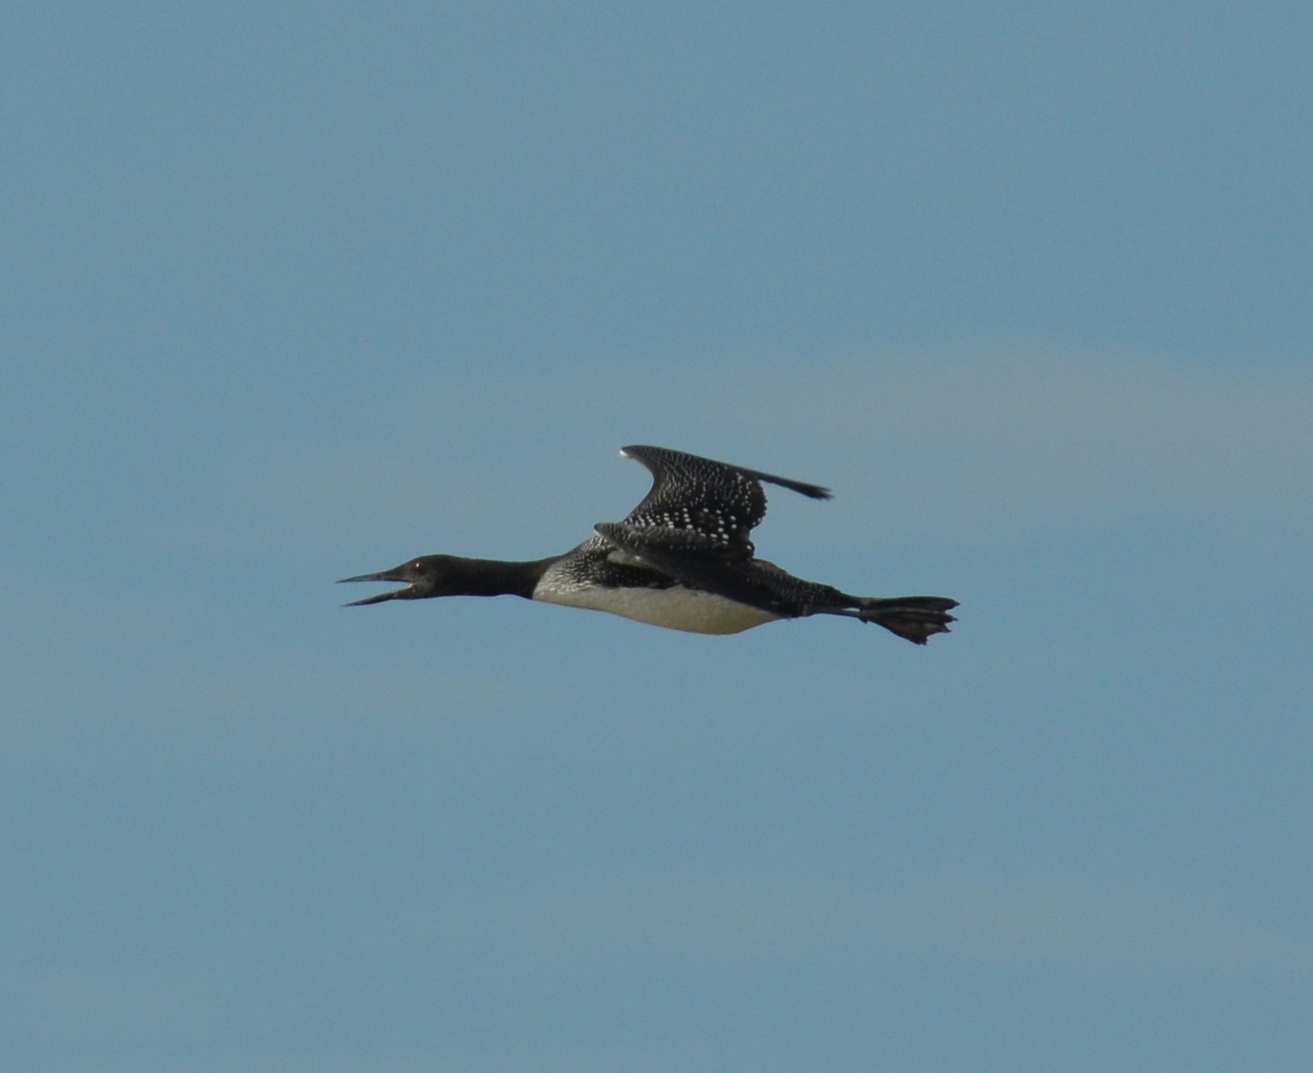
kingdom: Animalia
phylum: Chordata
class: Aves
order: Gaviiformes
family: Gaviidae
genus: Gavia
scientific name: Gavia immer
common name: Common loon
